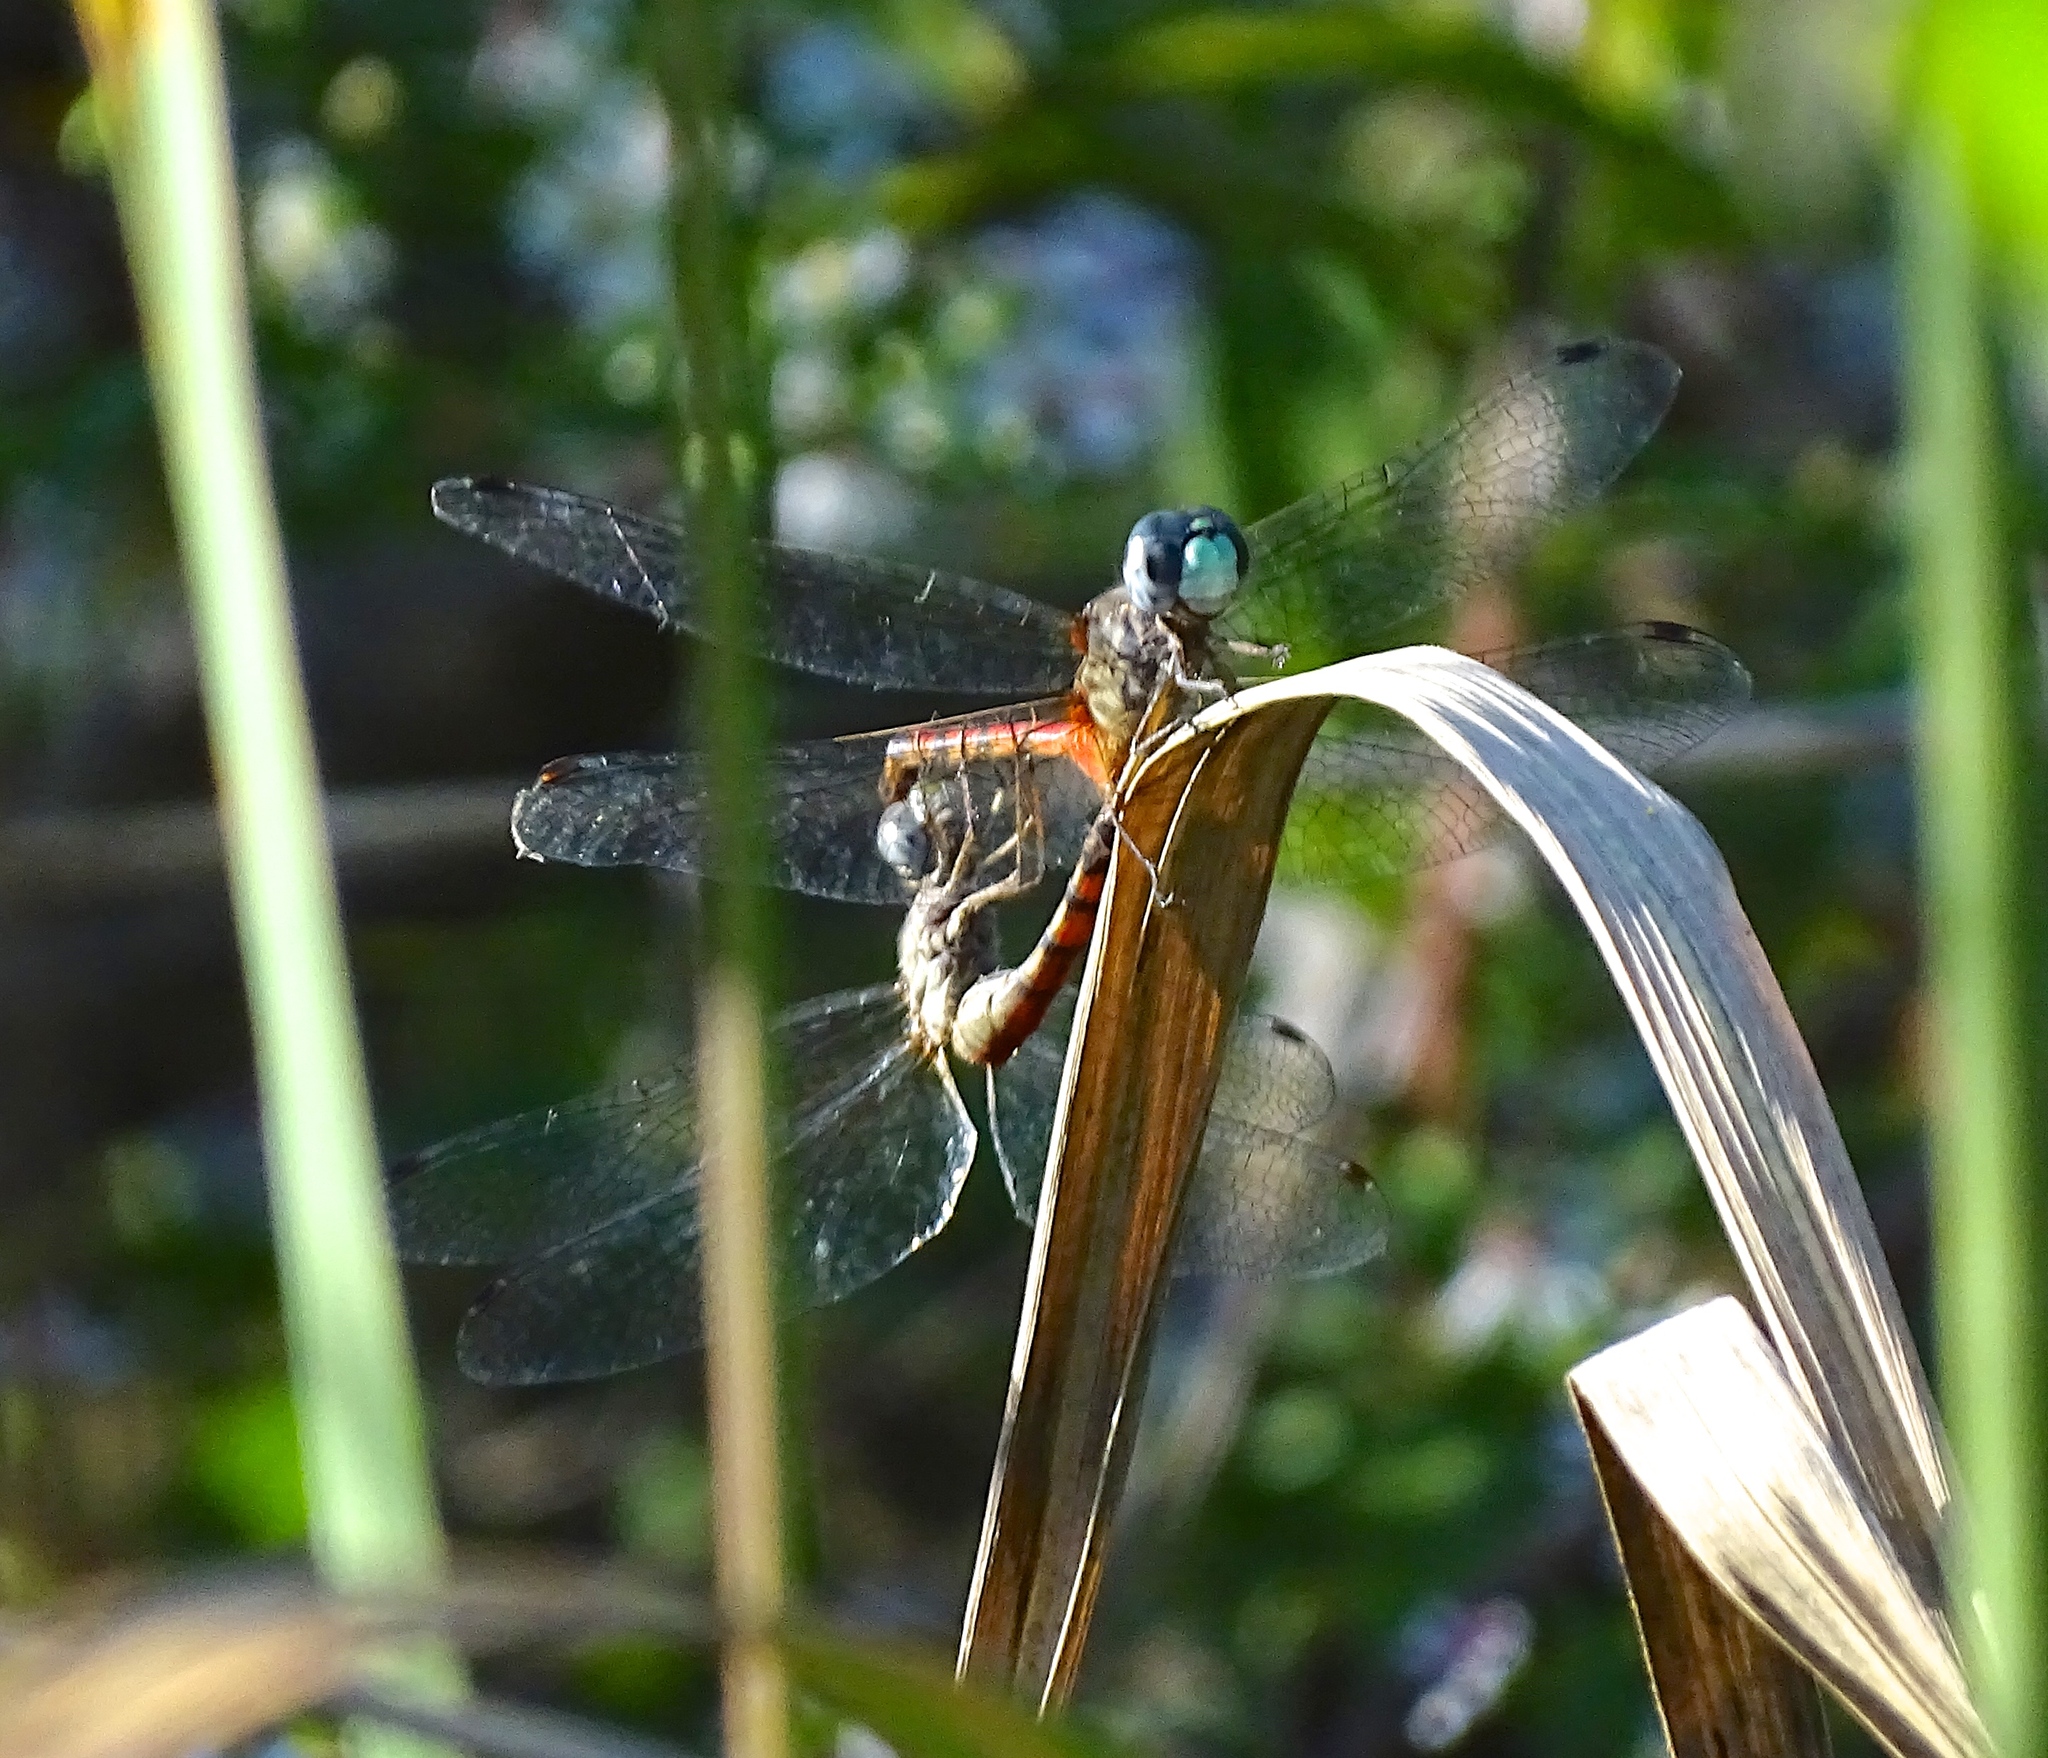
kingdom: Animalia
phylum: Arthropoda
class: Insecta
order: Odonata
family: Libellulidae
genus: Sympetrum
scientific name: Sympetrum ambiguum
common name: Blue-faced meadowhawk
